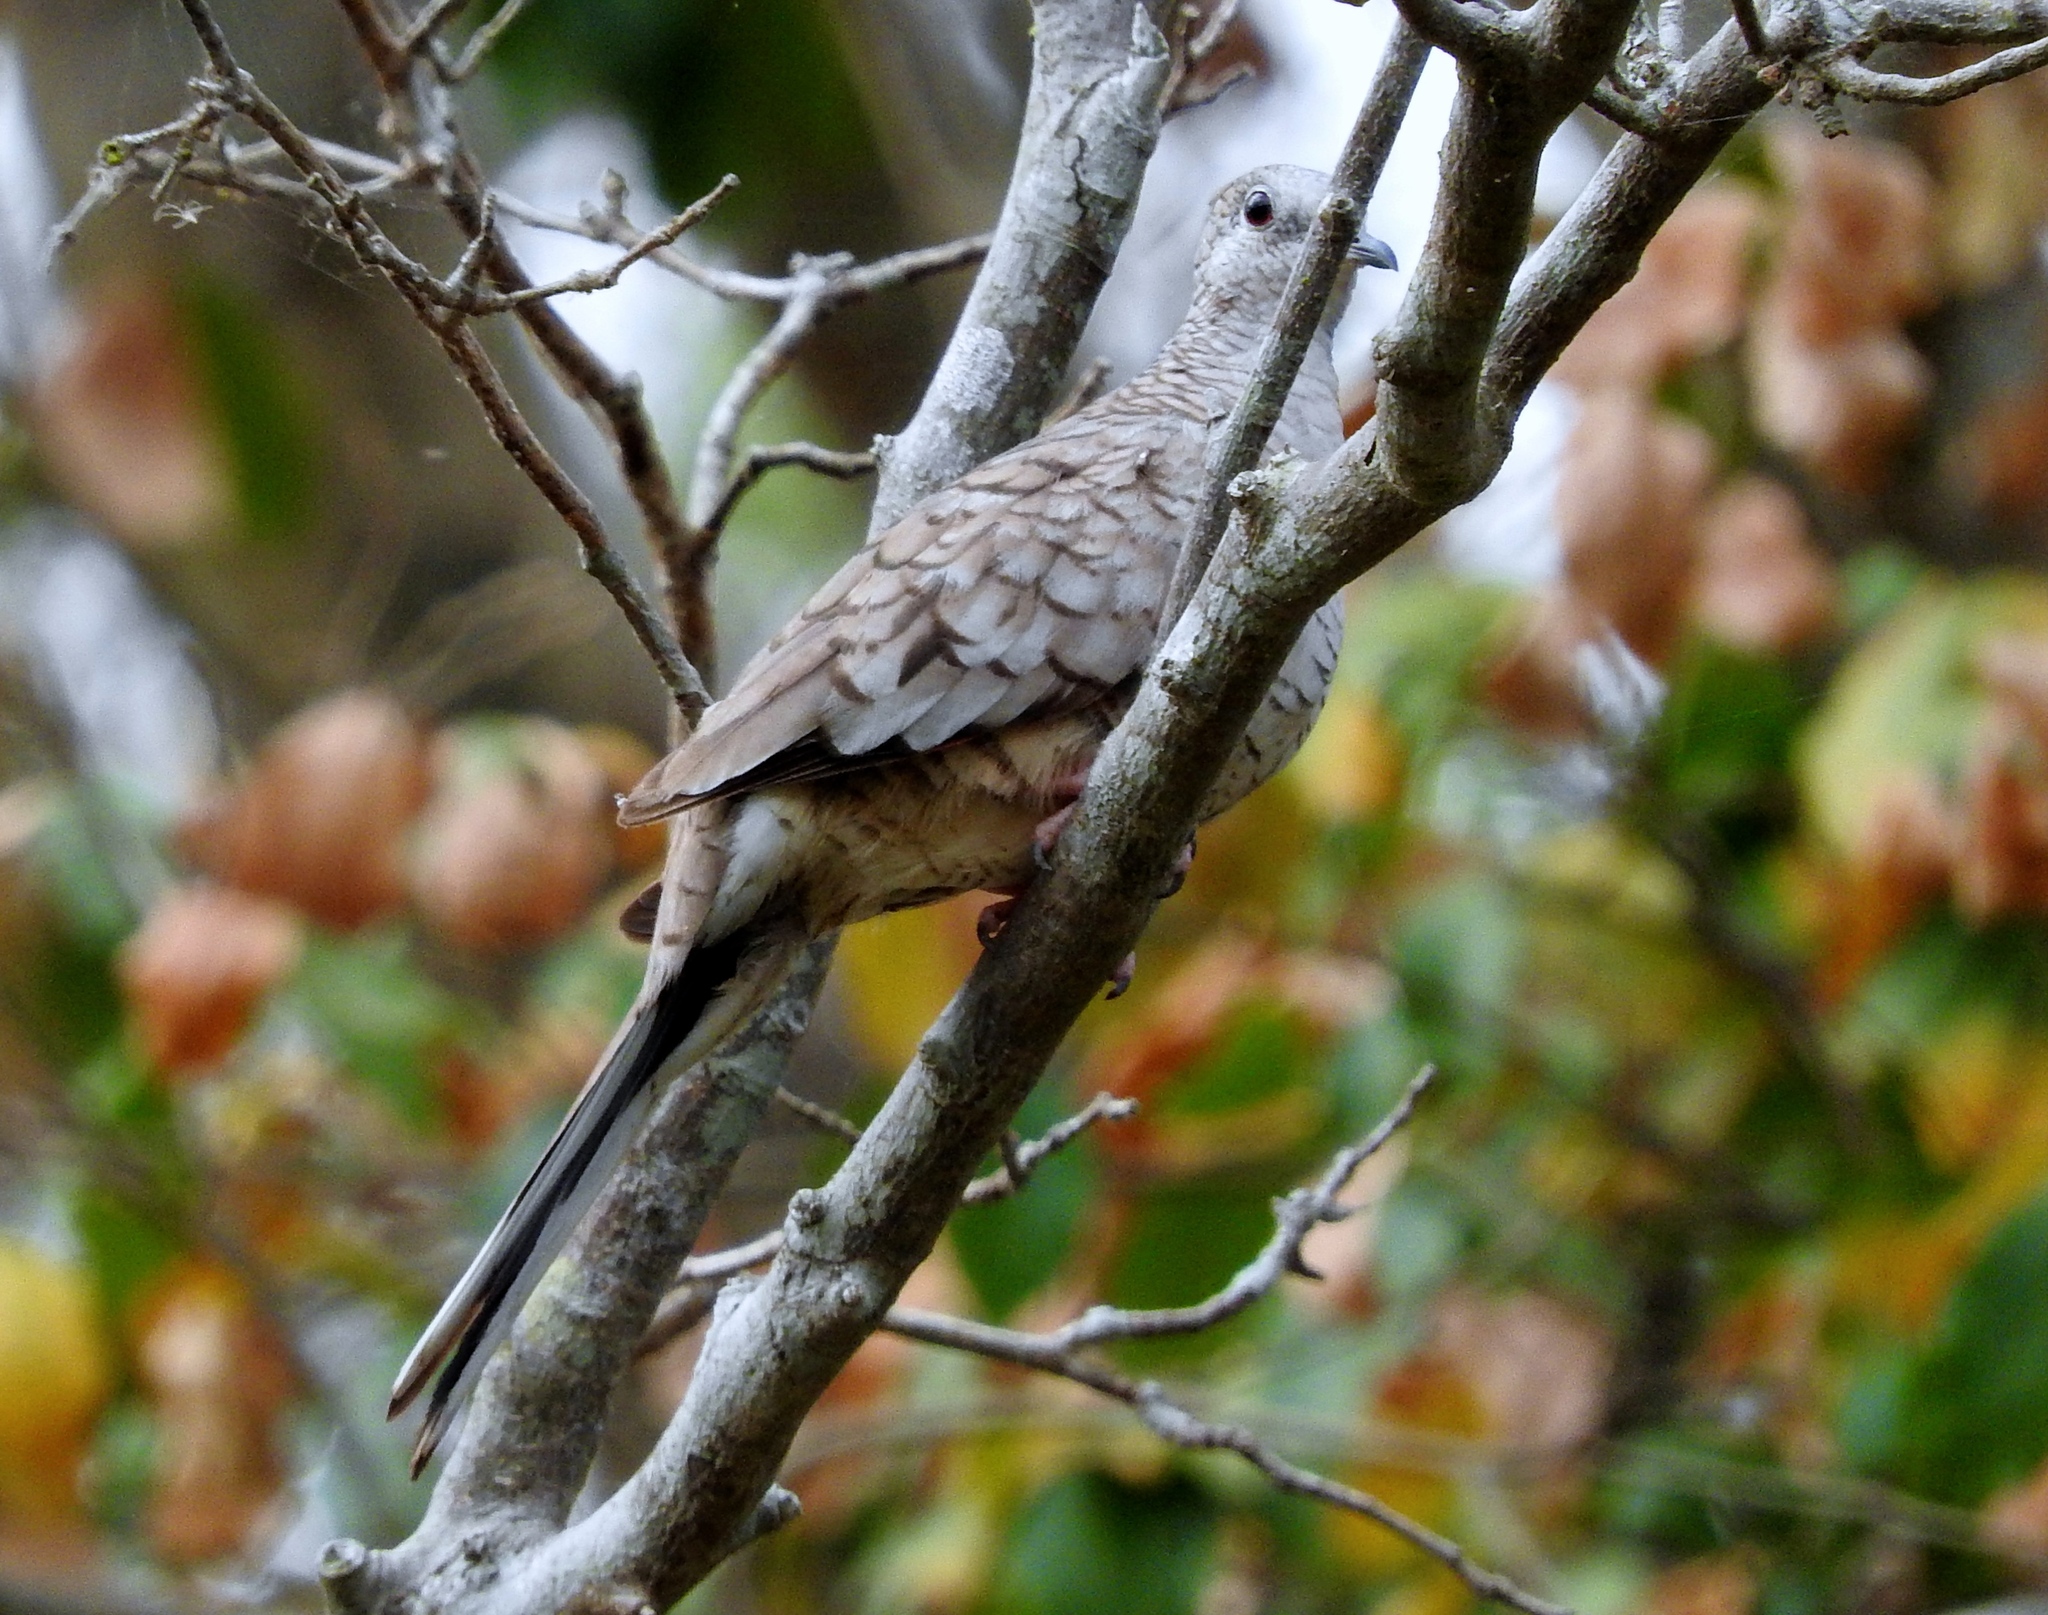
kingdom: Animalia
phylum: Chordata
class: Aves
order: Columbiformes
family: Columbidae
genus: Columbina
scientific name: Columbina inca
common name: Inca dove
